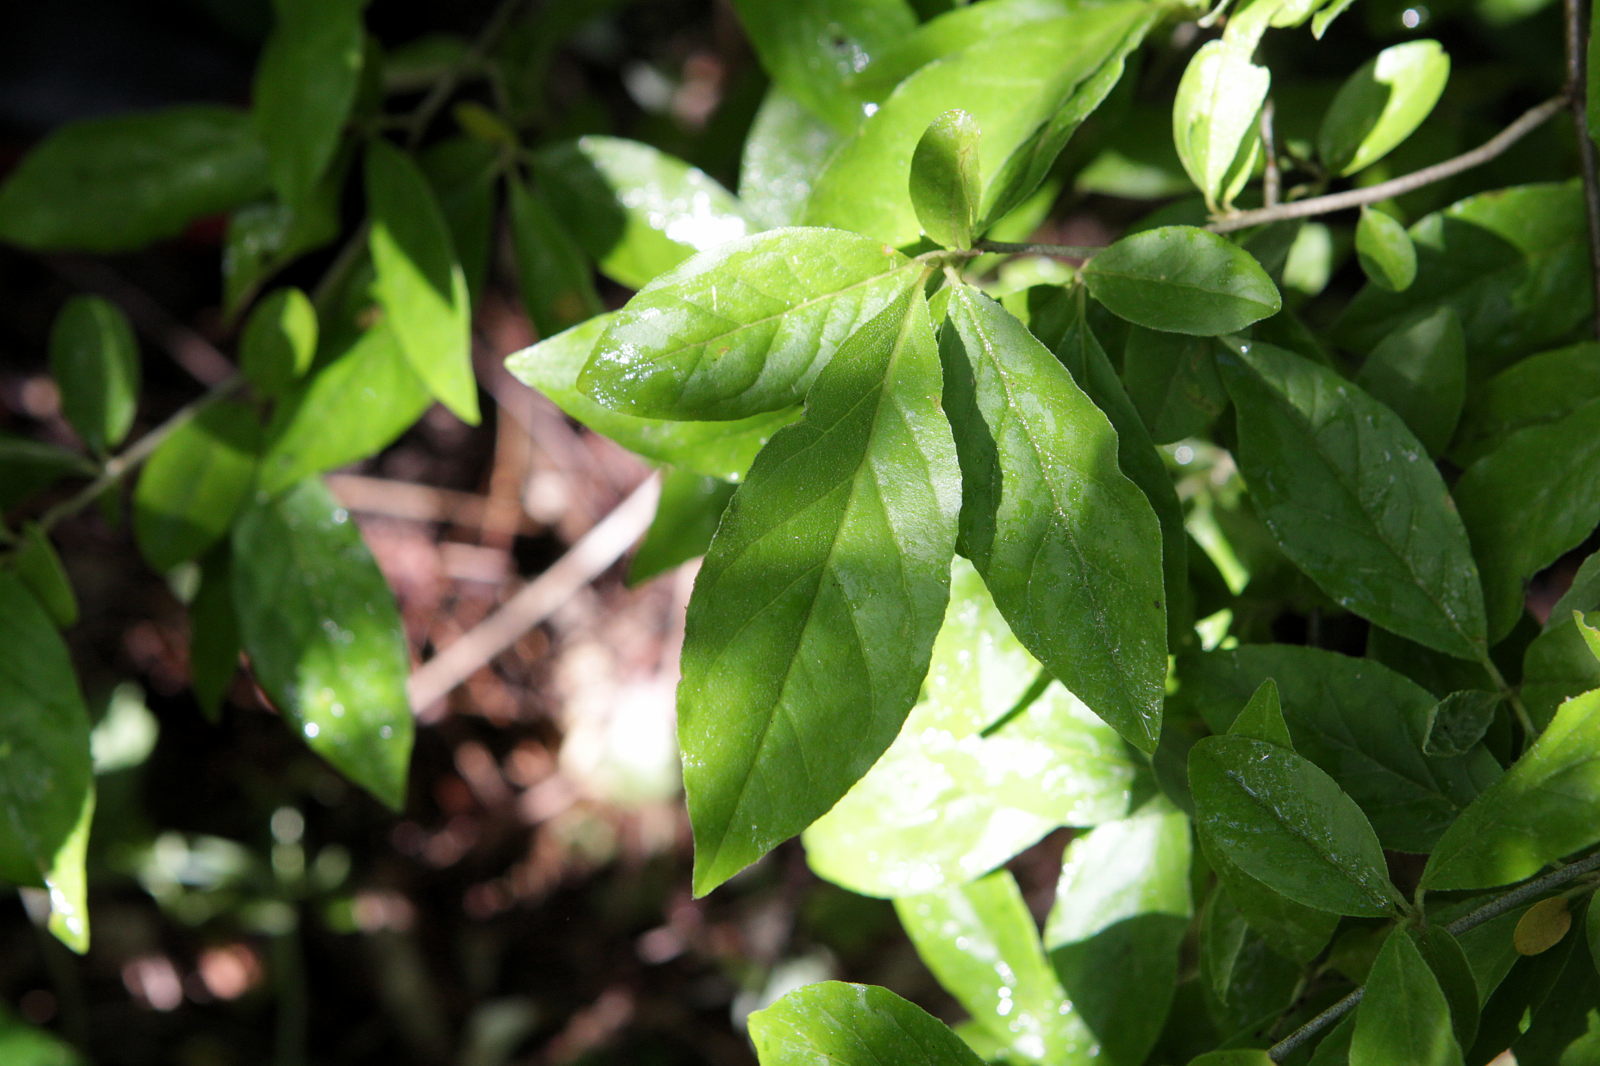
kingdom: Plantae
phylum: Tracheophyta
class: Magnoliopsida
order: Rosales
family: Rosaceae
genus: Mespilus
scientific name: Mespilus germanica
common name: Medlar
